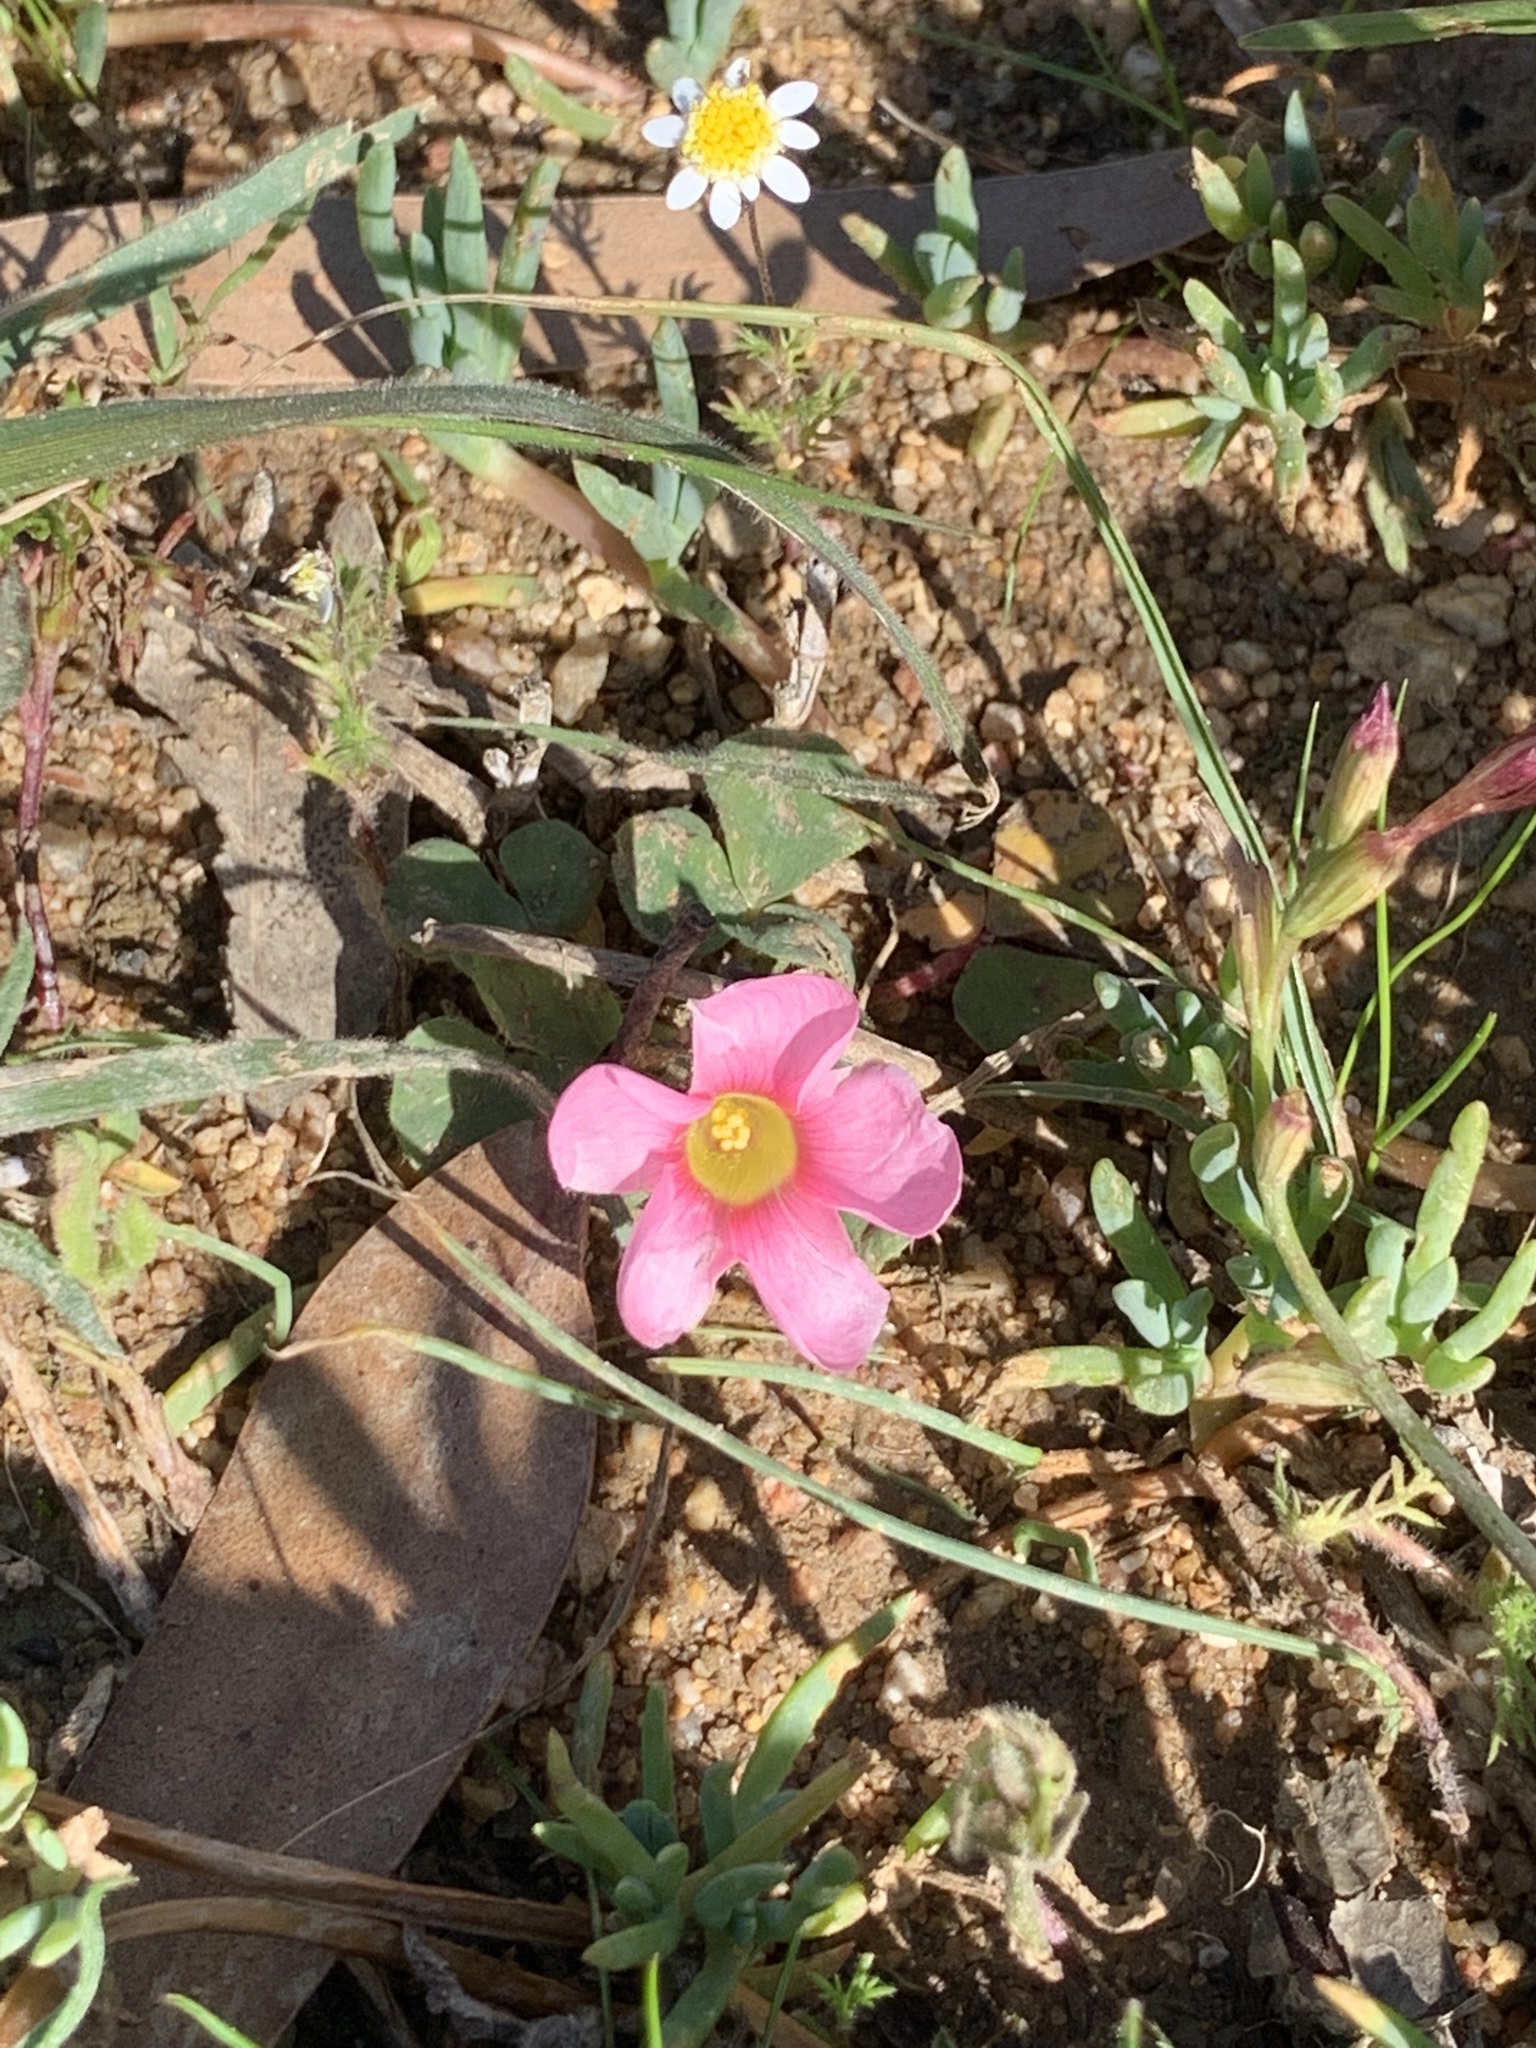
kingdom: Plantae
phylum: Tracheophyta
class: Magnoliopsida
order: Oxalidales
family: Oxalidaceae
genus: Oxalis
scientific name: Oxalis purpurea
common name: Purple woodsorrel
